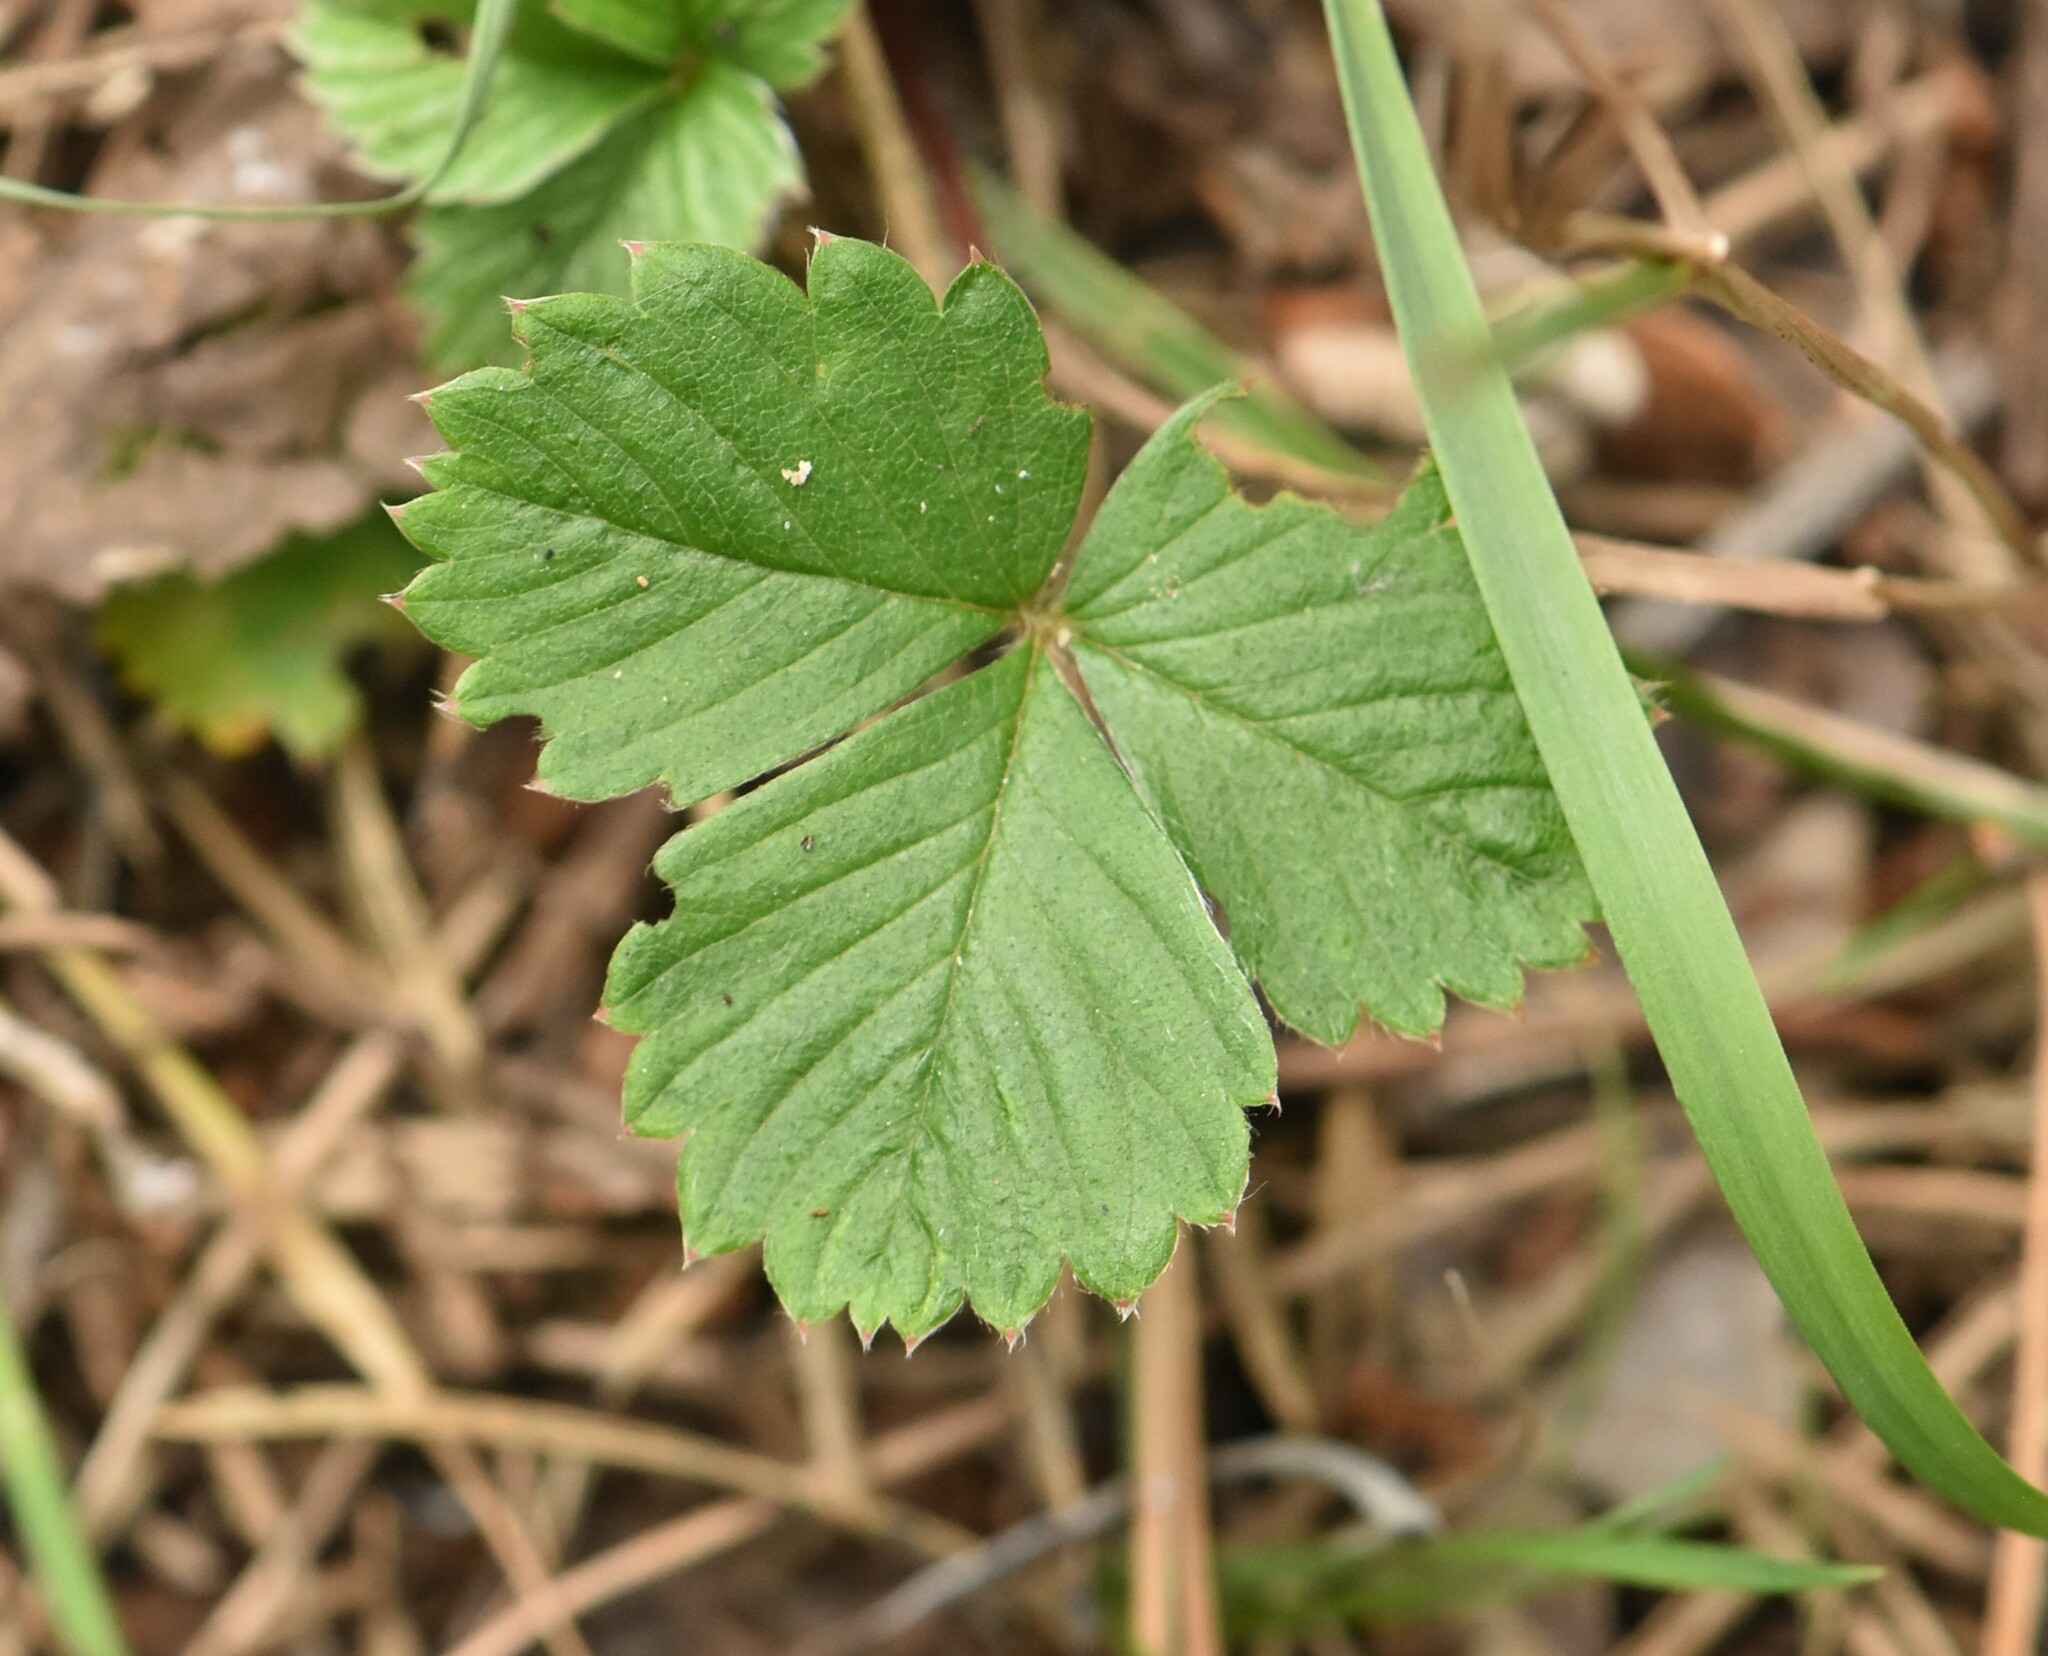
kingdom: Plantae
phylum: Tracheophyta
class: Magnoliopsida
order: Rosales
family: Rosaceae
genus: Fragaria
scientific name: Fragaria vesca
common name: Wild strawberry
